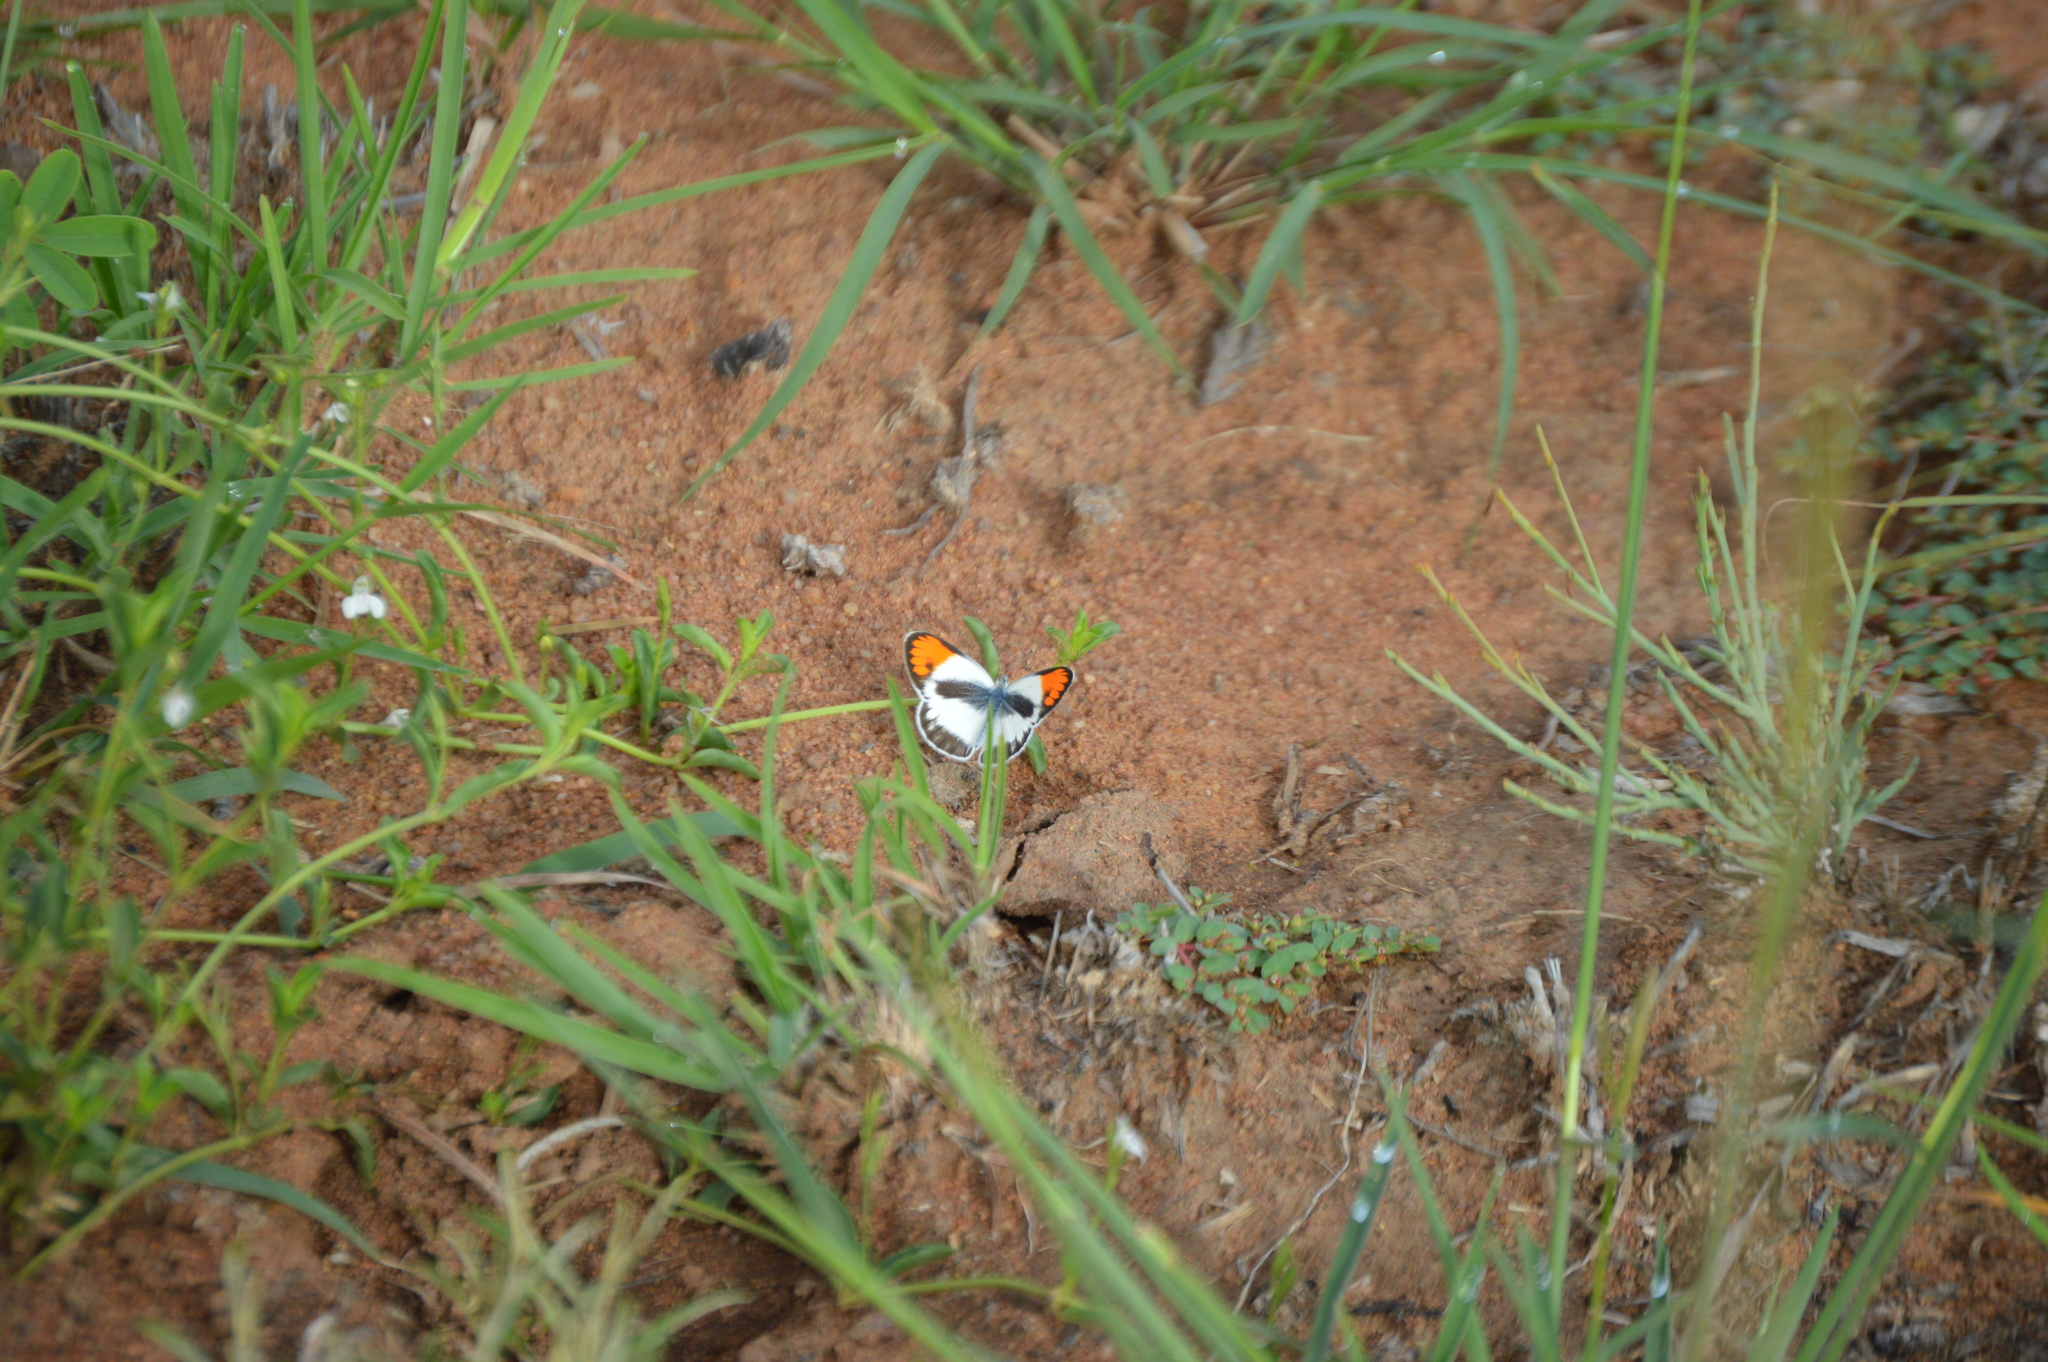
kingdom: Animalia
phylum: Arthropoda
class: Insecta
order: Lepidoptera
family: Pieridae
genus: Colotis
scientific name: Colotis evagore
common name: Desert orange-tip
